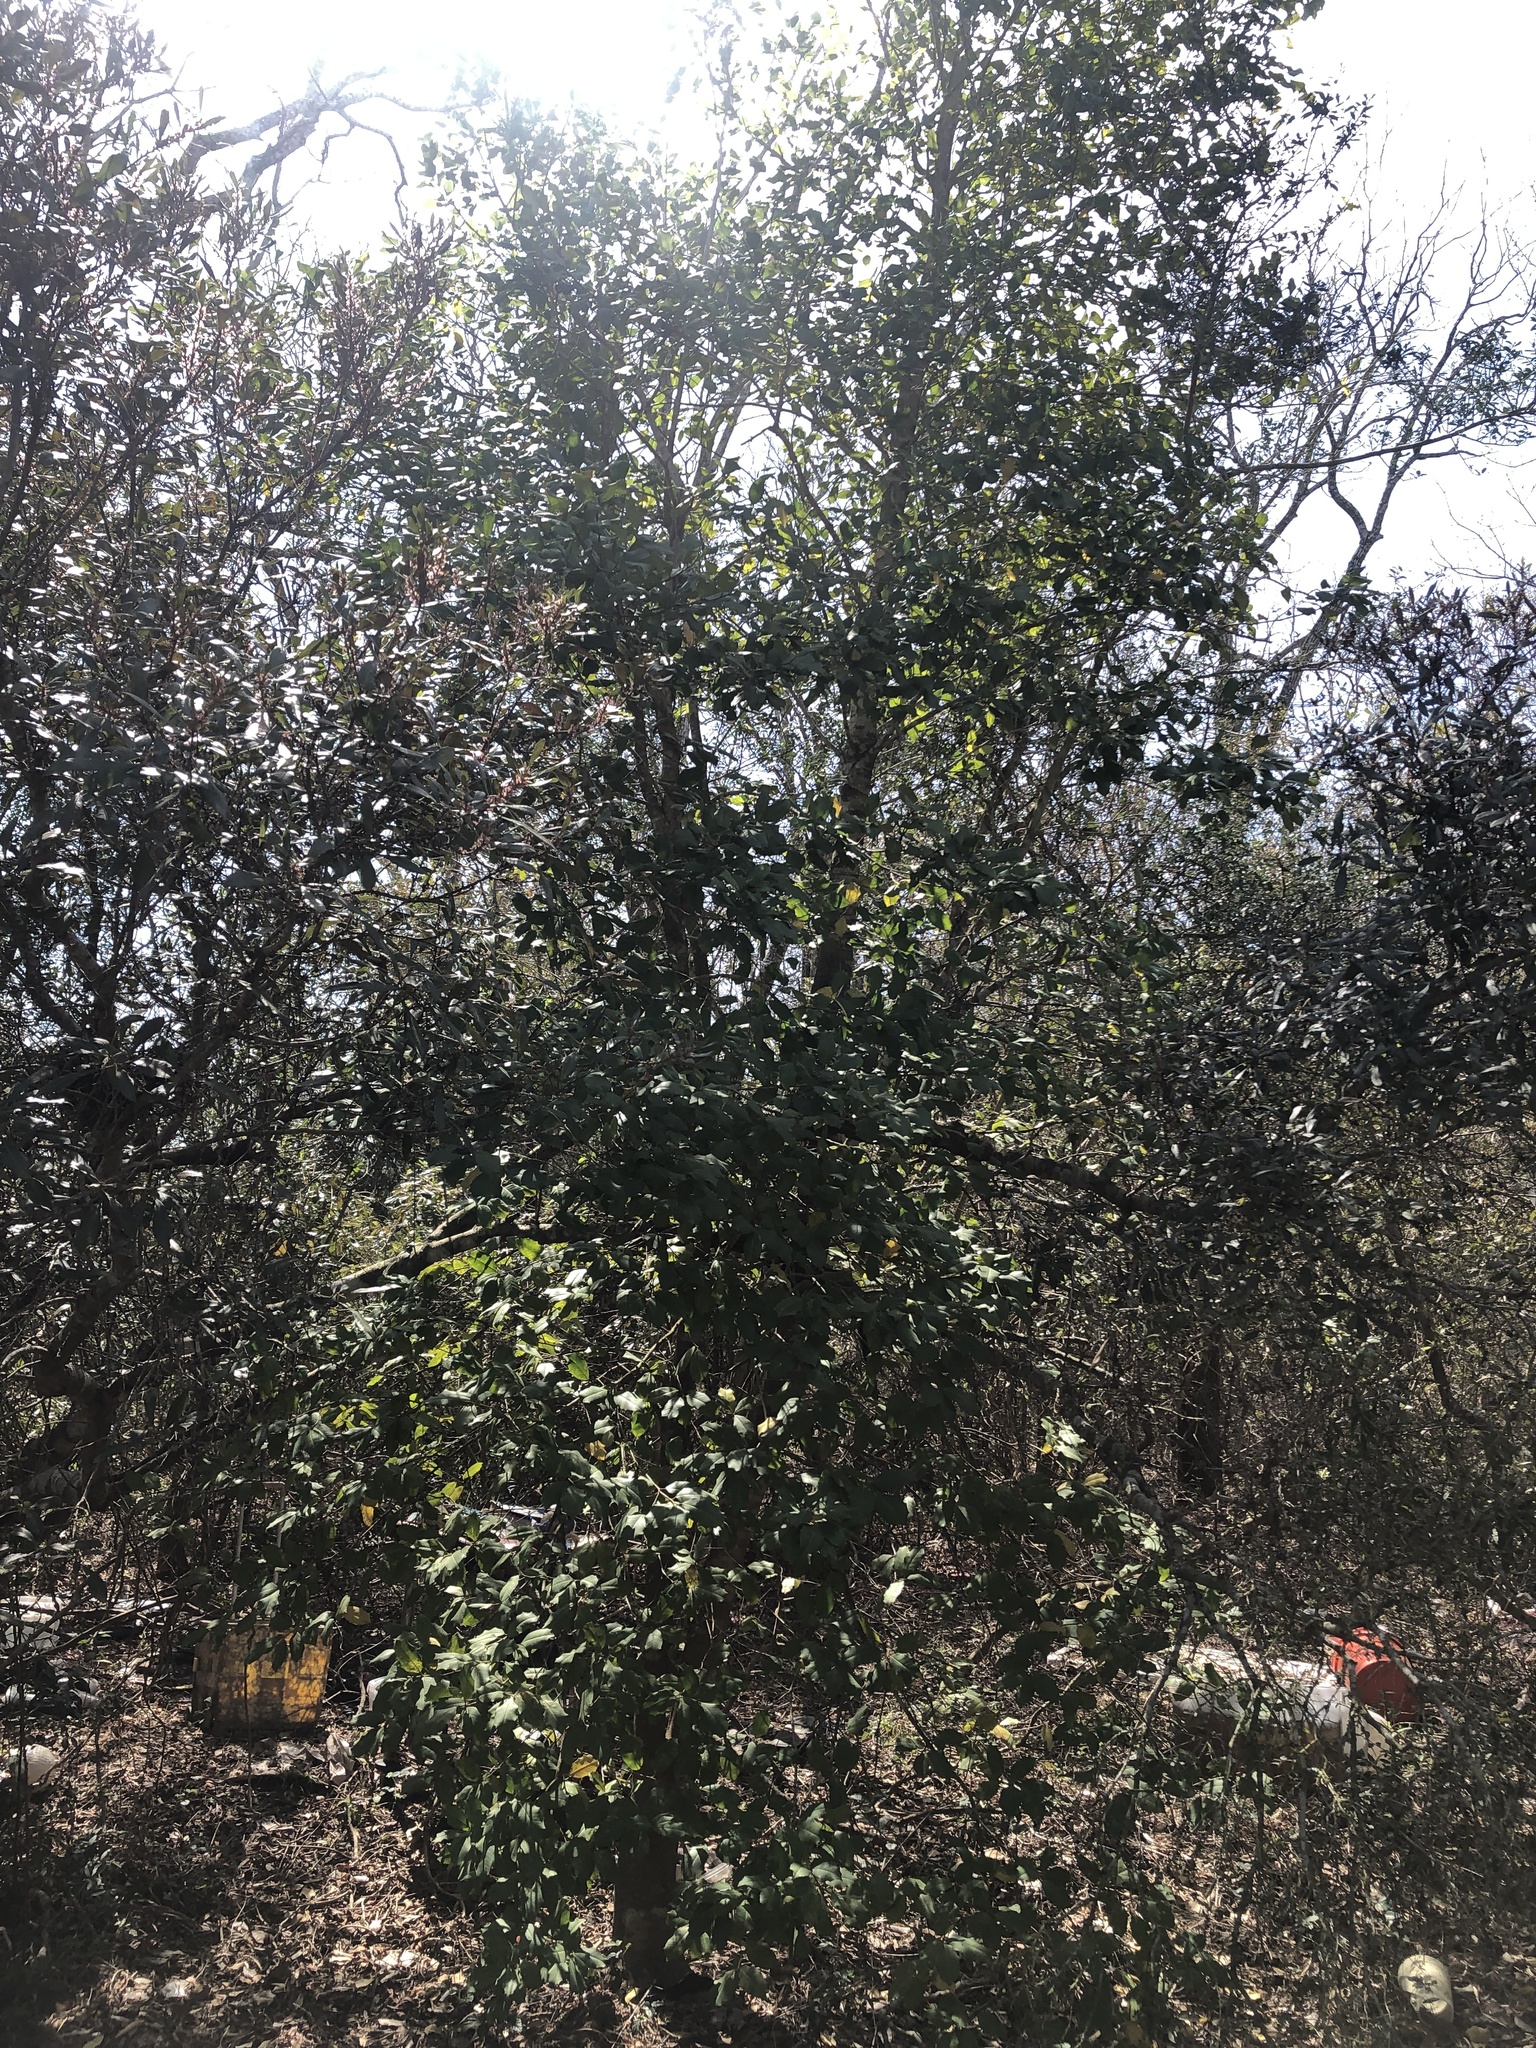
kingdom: Plantae
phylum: Tracheophyta
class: Magnoliopsida
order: Aquifoliales
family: Aquifoliaceae
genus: Ilex
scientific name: Ilex opaca
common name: American holly
